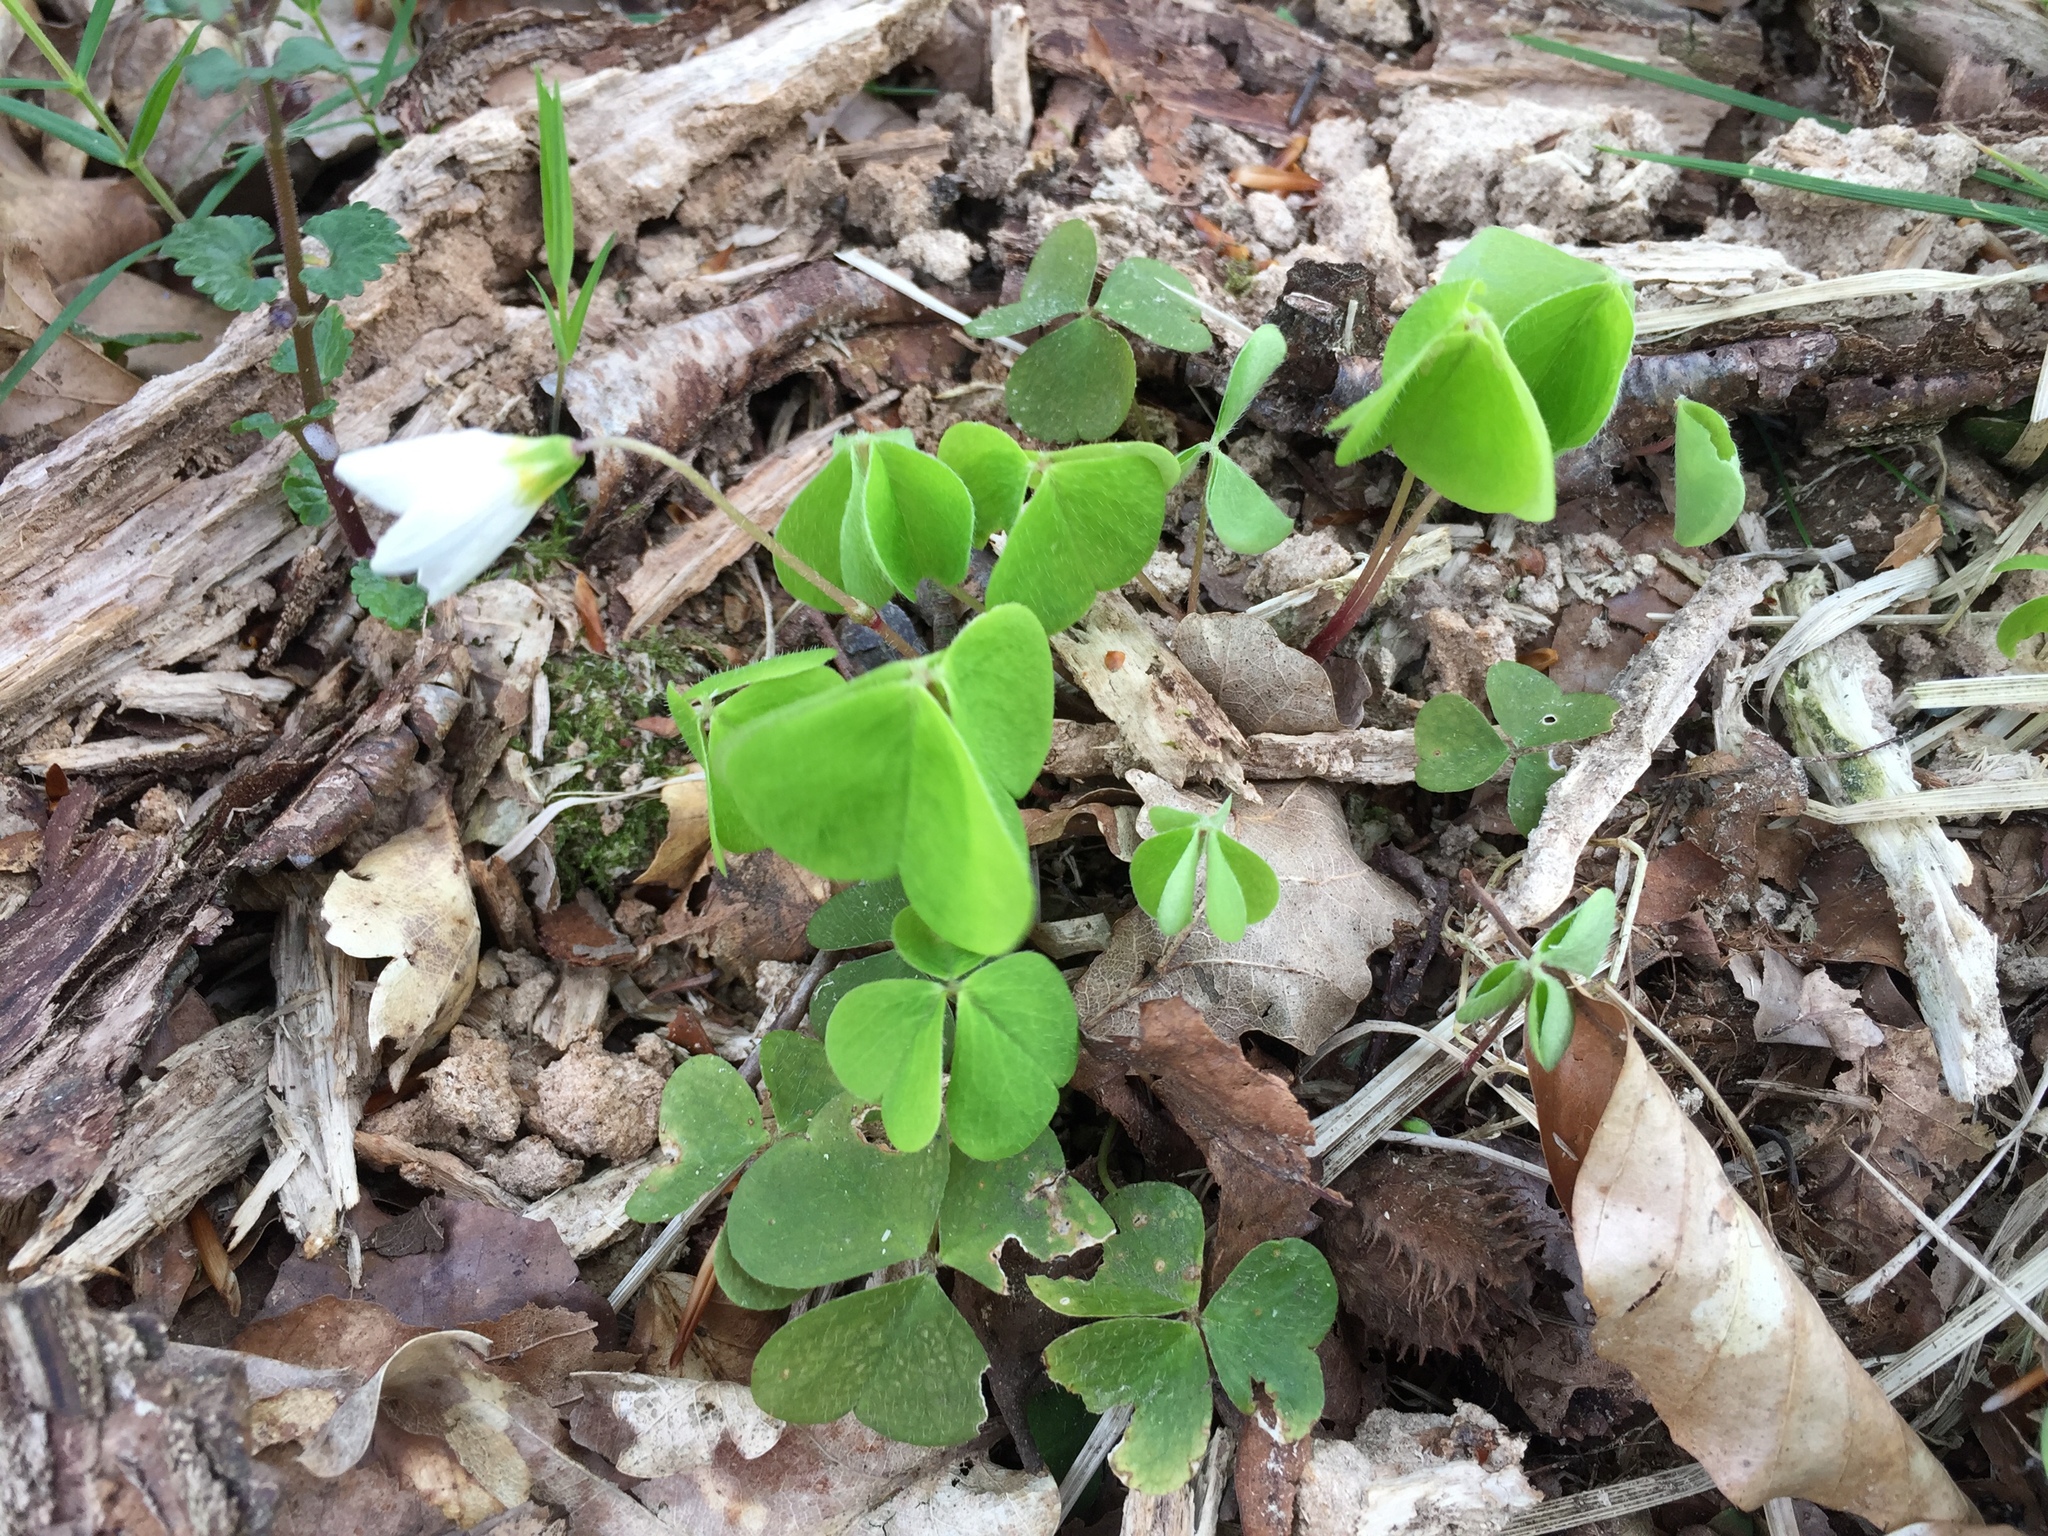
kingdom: Plantae
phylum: Tracheophyta
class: Magnoliopsida
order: Oxalidales
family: Oxalidaceae
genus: Oxalis
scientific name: Oxalis acetosella
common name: Wood-sorrel
